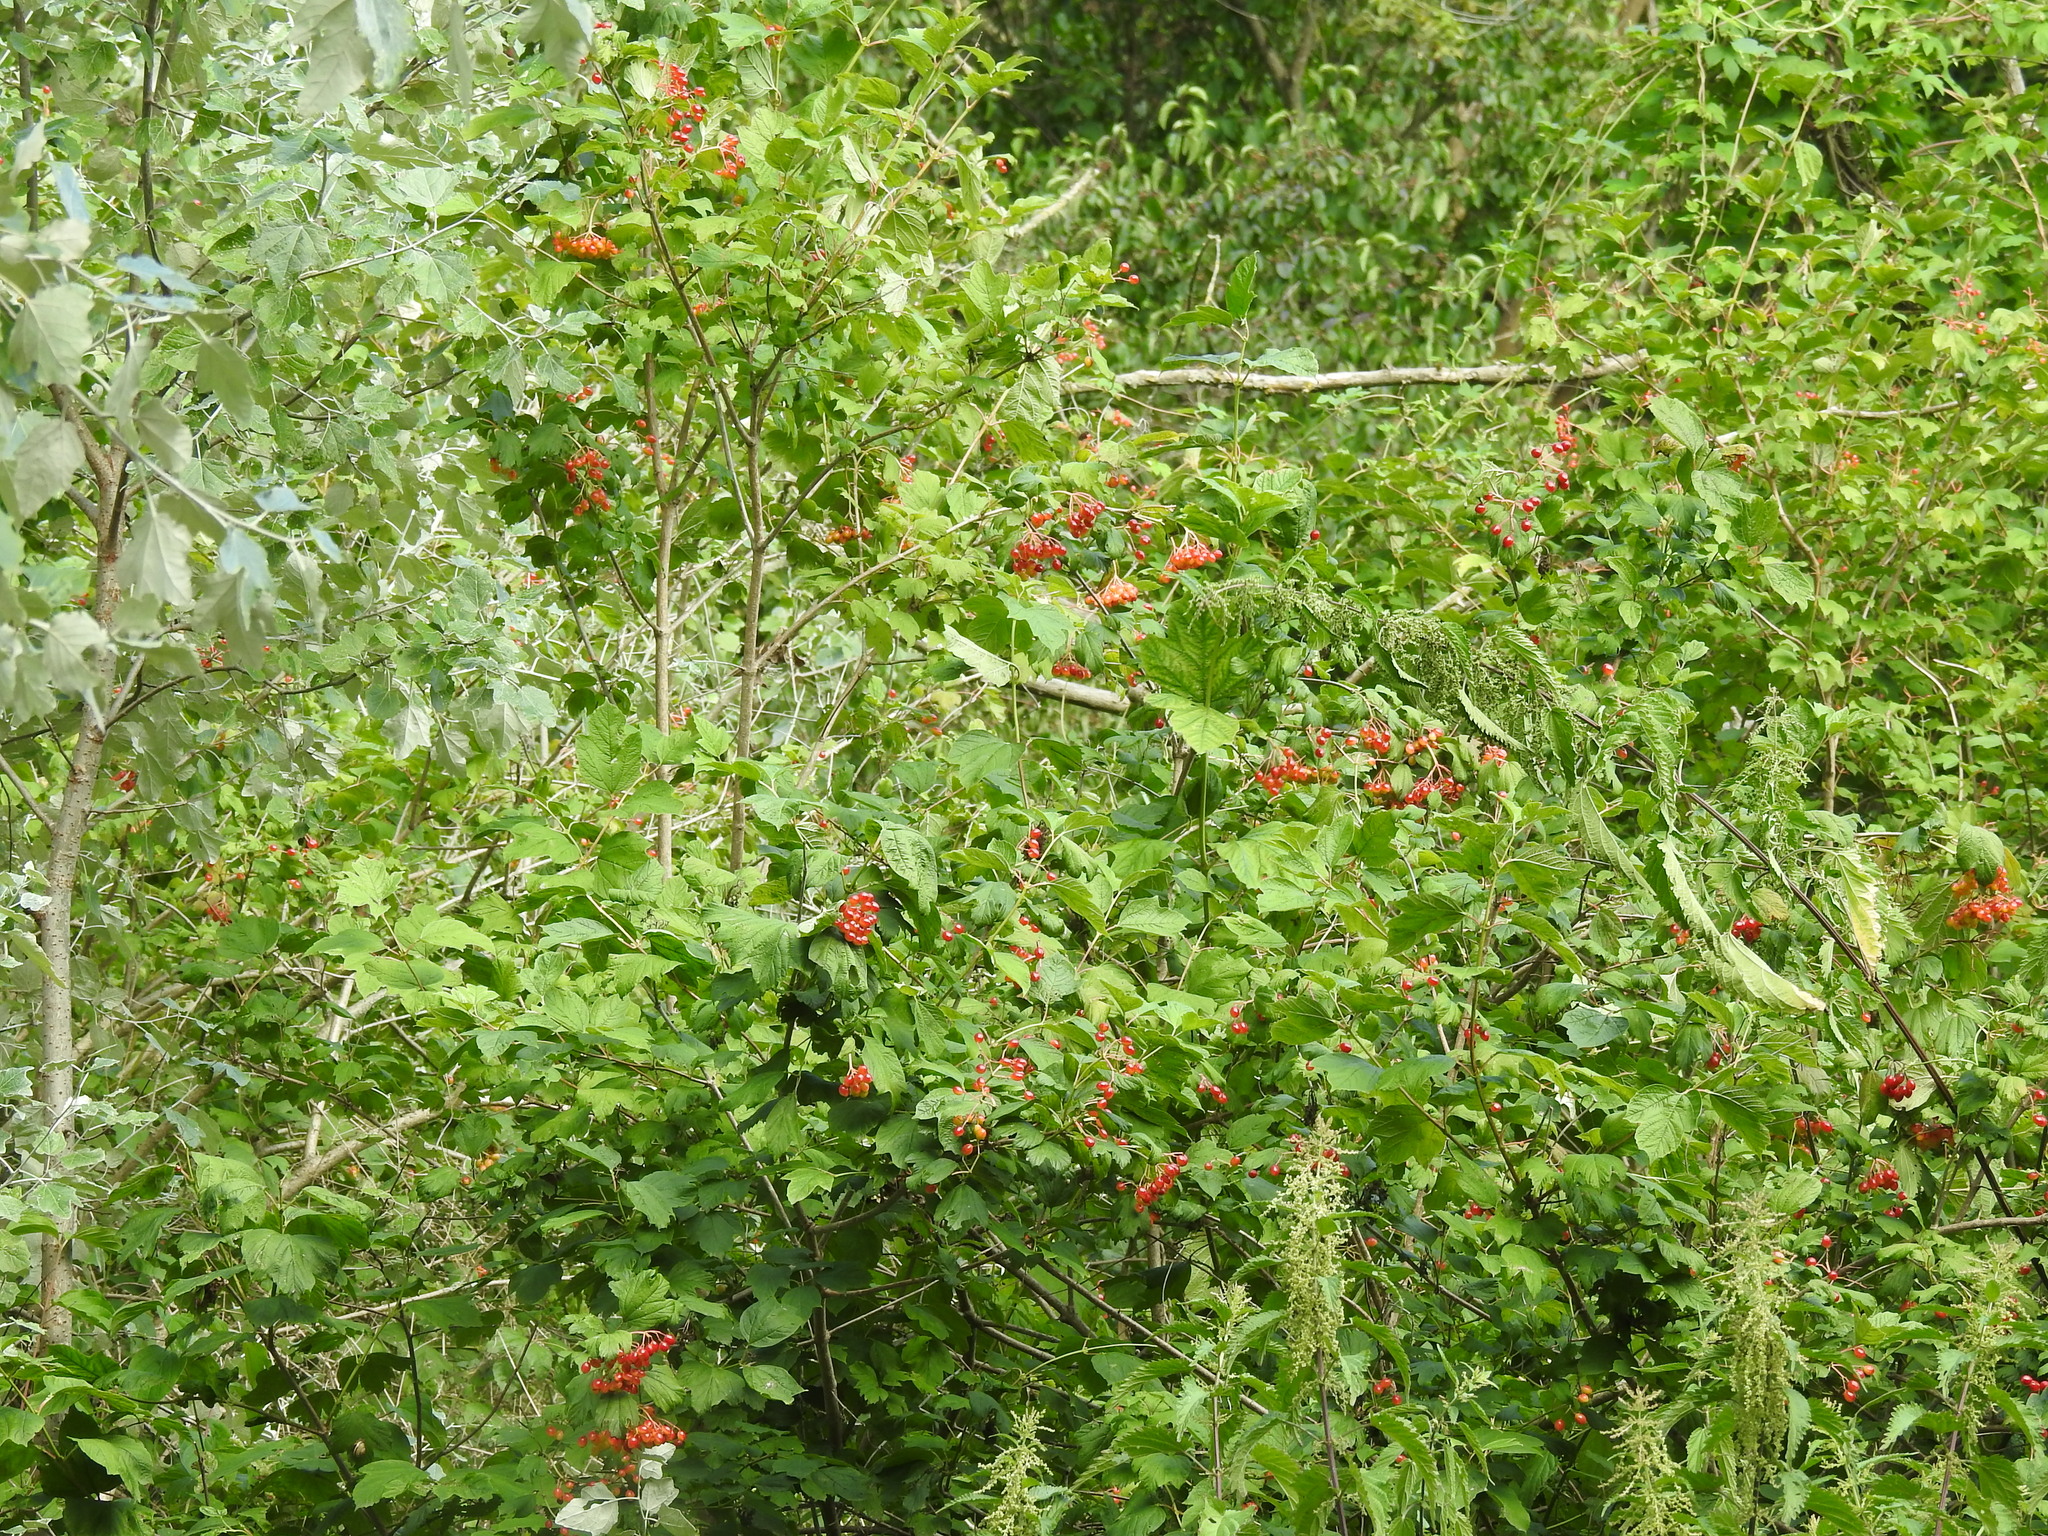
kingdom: Plantae
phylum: Tracheophyta
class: Magnoliopsida
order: Dipsacales
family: Viburnaceae
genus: Viburnum
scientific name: Viburnum opulus
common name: Guelder-rose
